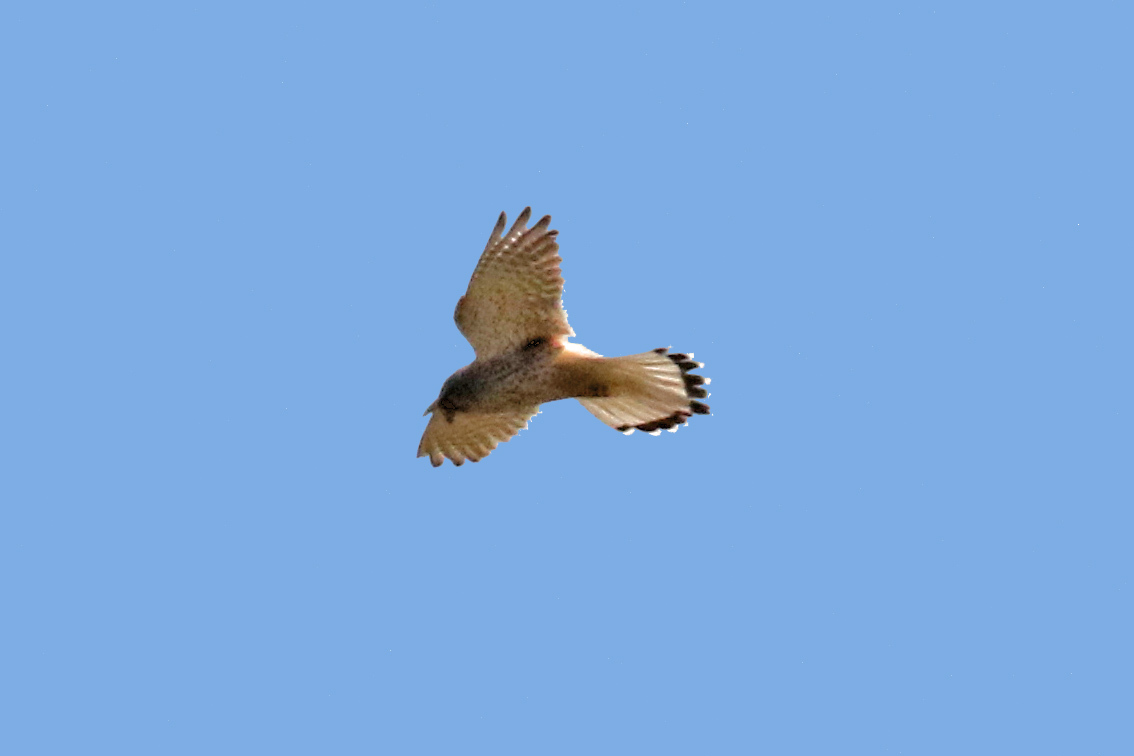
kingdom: Animalia
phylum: Chordata
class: Aves
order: Falconiformes
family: Falconidae
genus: Falco
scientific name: Falco tinnunculus
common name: Common kestrel
